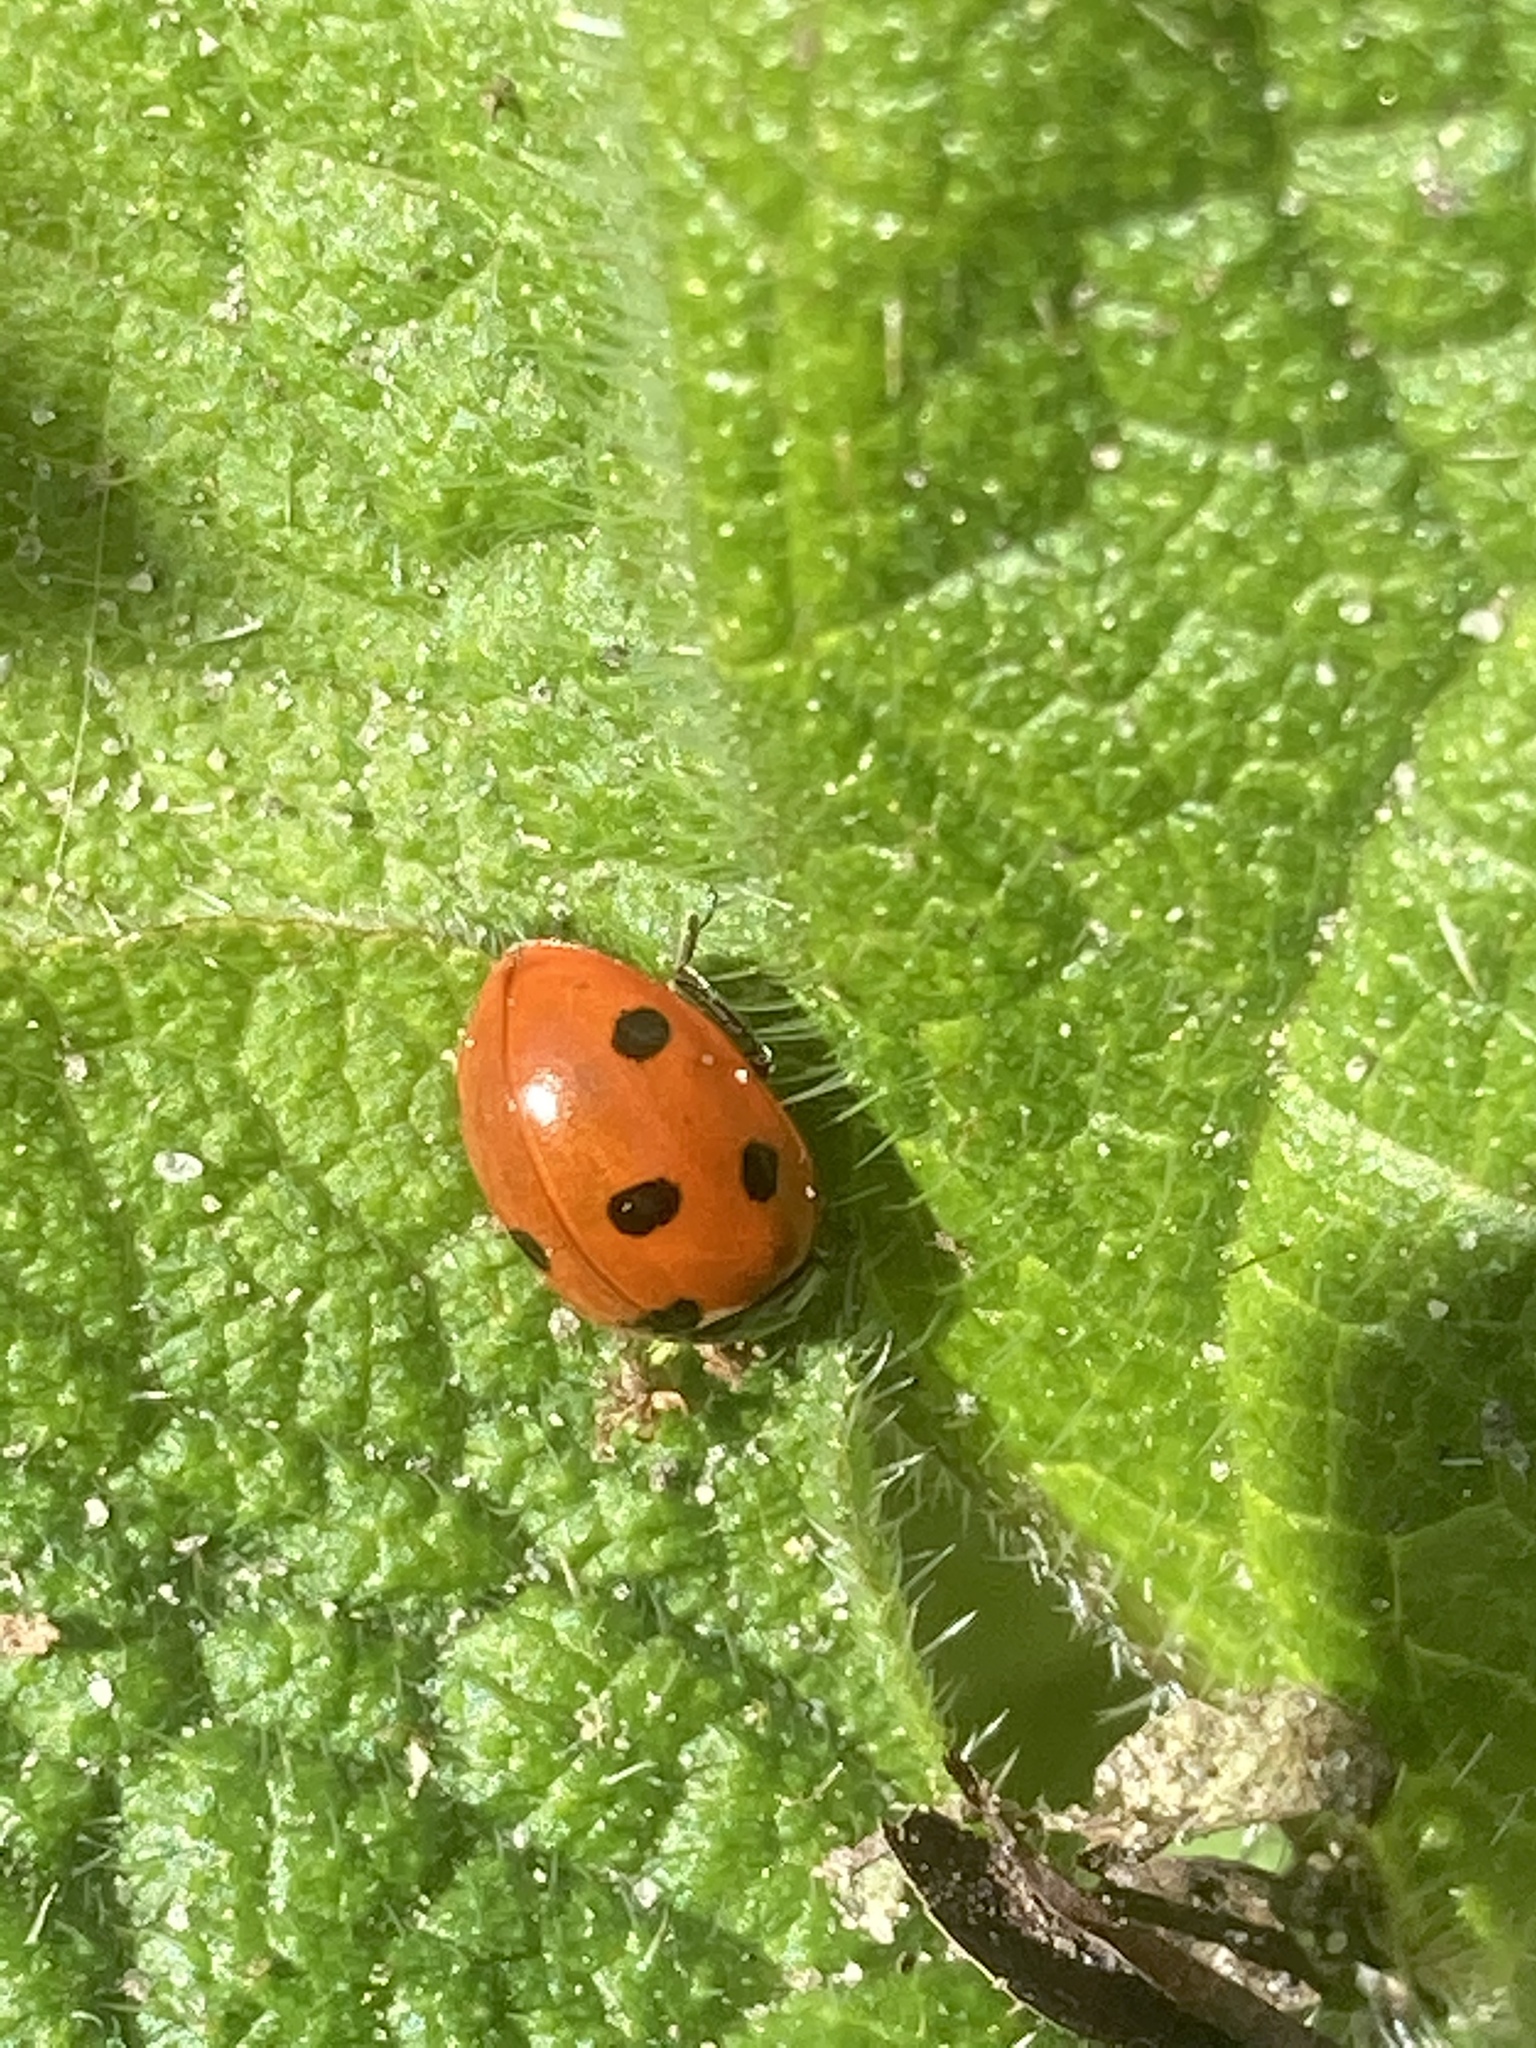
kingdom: Animalia
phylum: Arthropoda
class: Insecta
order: Coleoptera
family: Coccinellidae
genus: Coccinella
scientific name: Coccinella septempunctata
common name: Sevenspotted lady beetle
